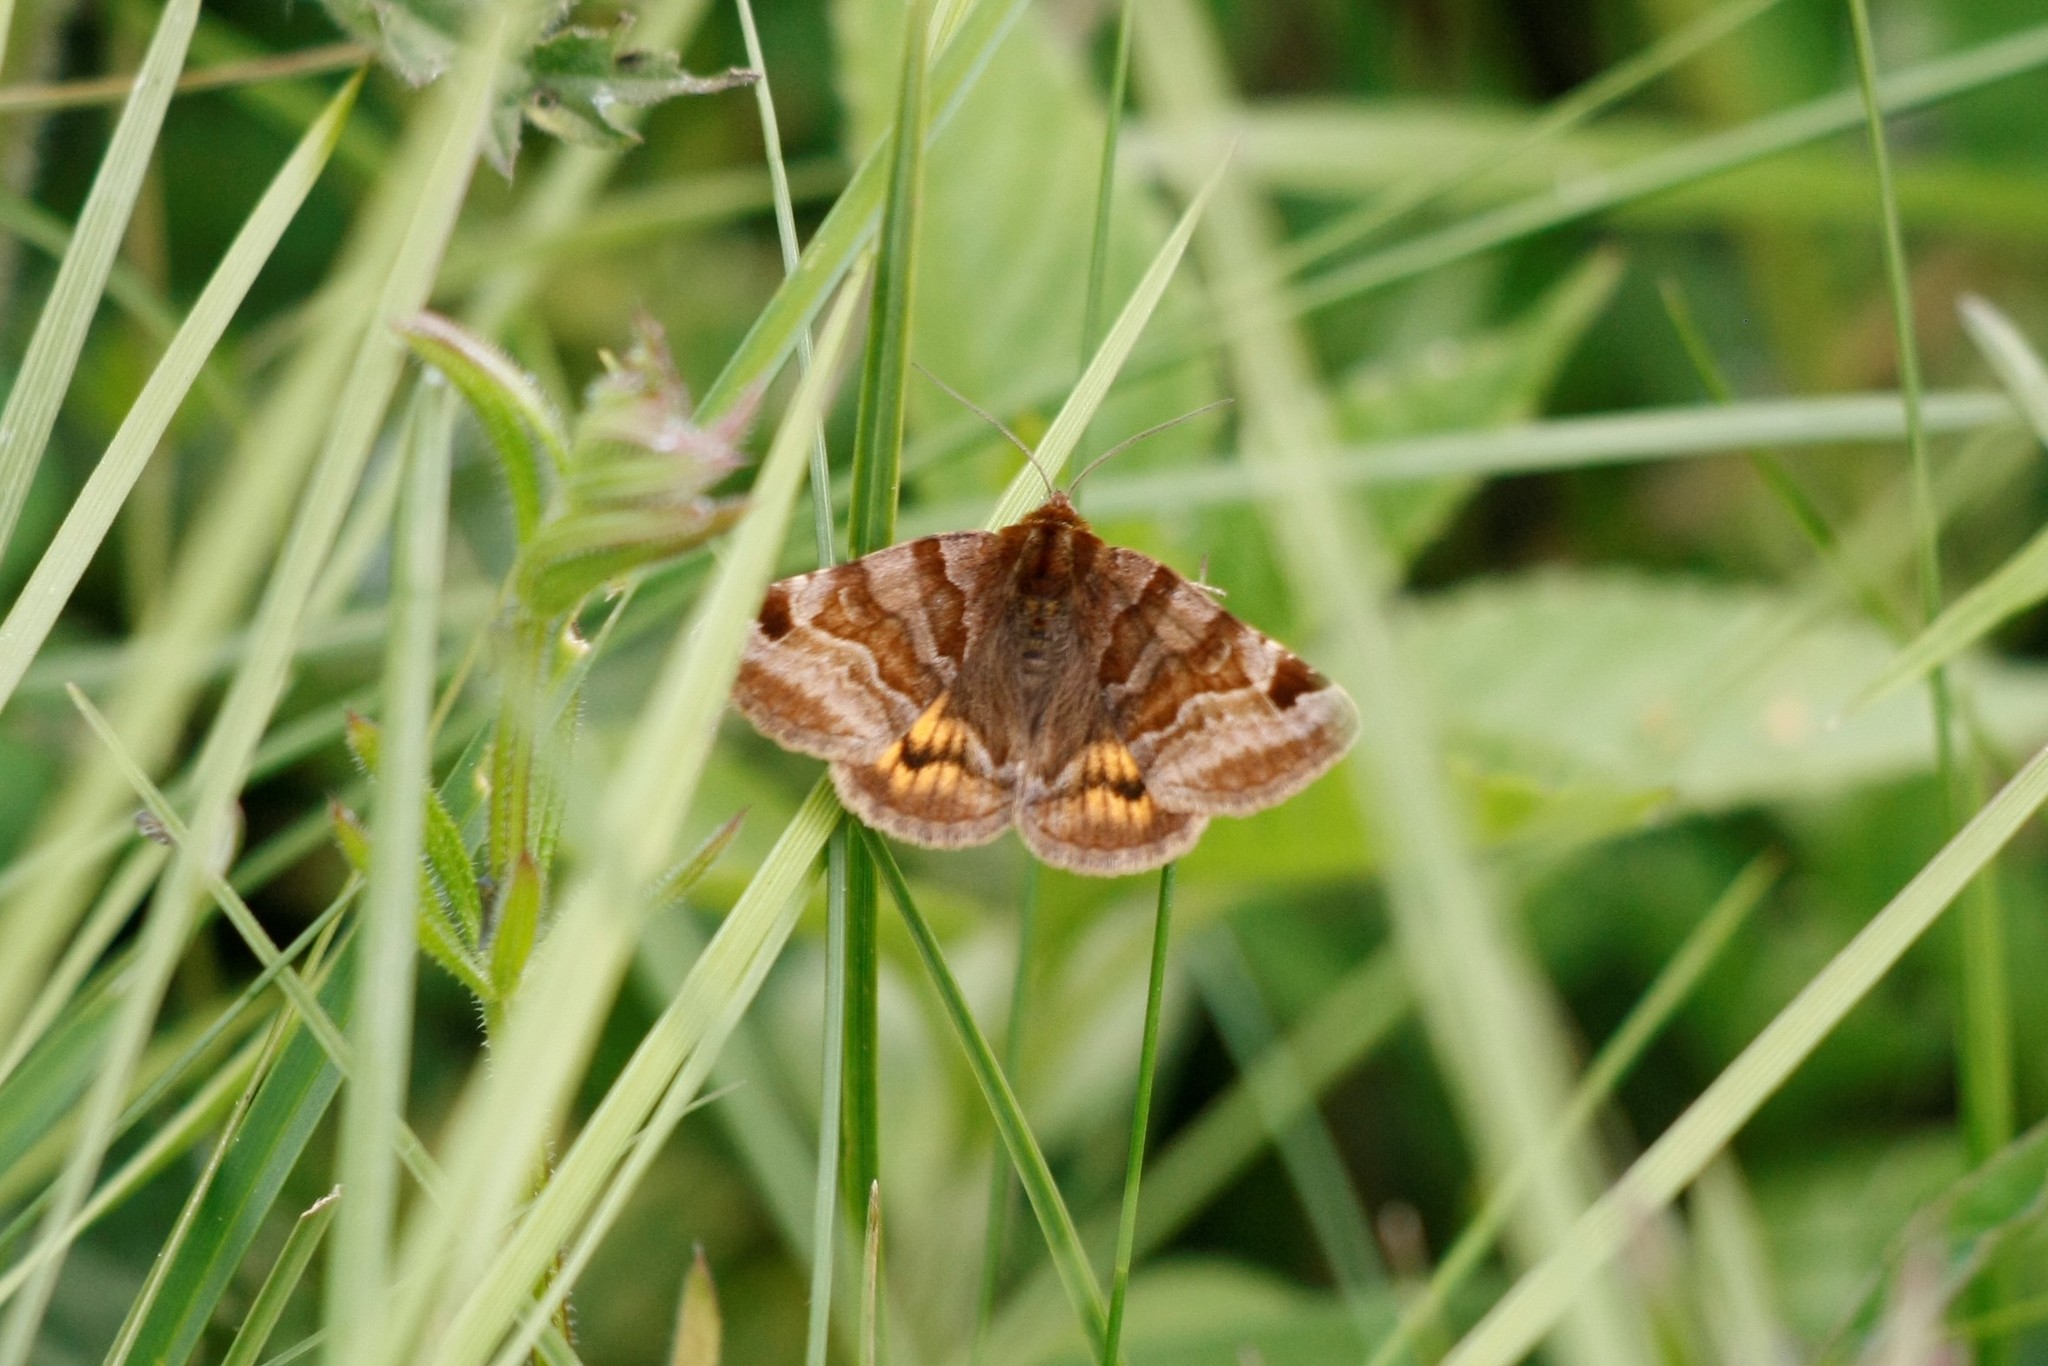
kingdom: Animalia
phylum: Arthropoda
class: Insecta
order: Lepidoptera
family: Erebidae
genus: Euclidia
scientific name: Euclidia glyphica
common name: Burnet companion
